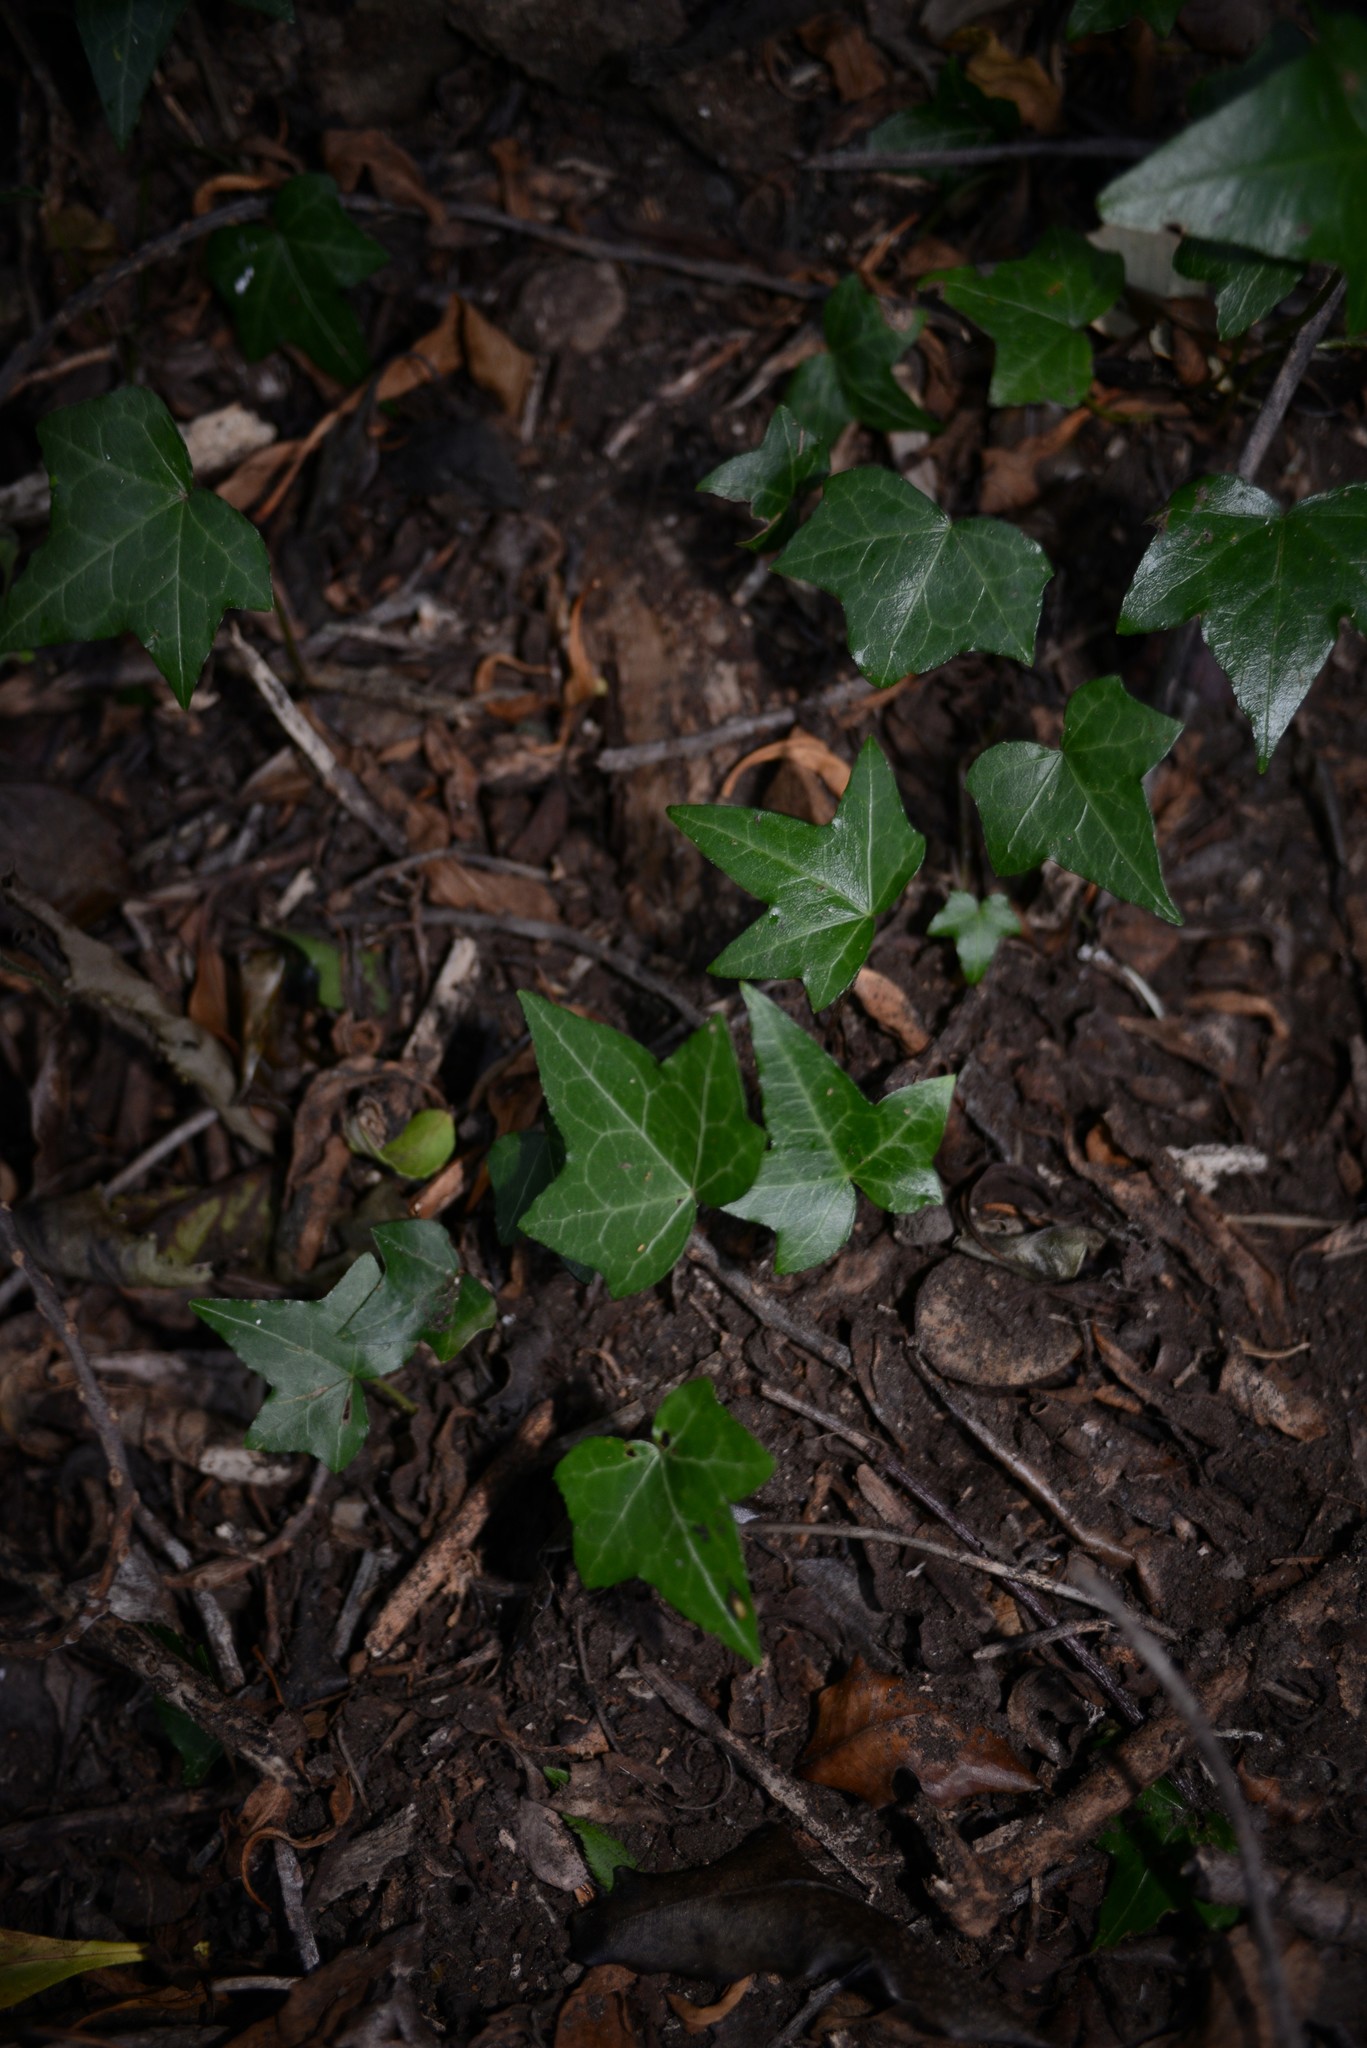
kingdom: Plantae
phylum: Tracheophyta
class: Magnoliopsida
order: Apiales
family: Araliaceae
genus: Hedera
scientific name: Hedera helix
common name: Ivy
